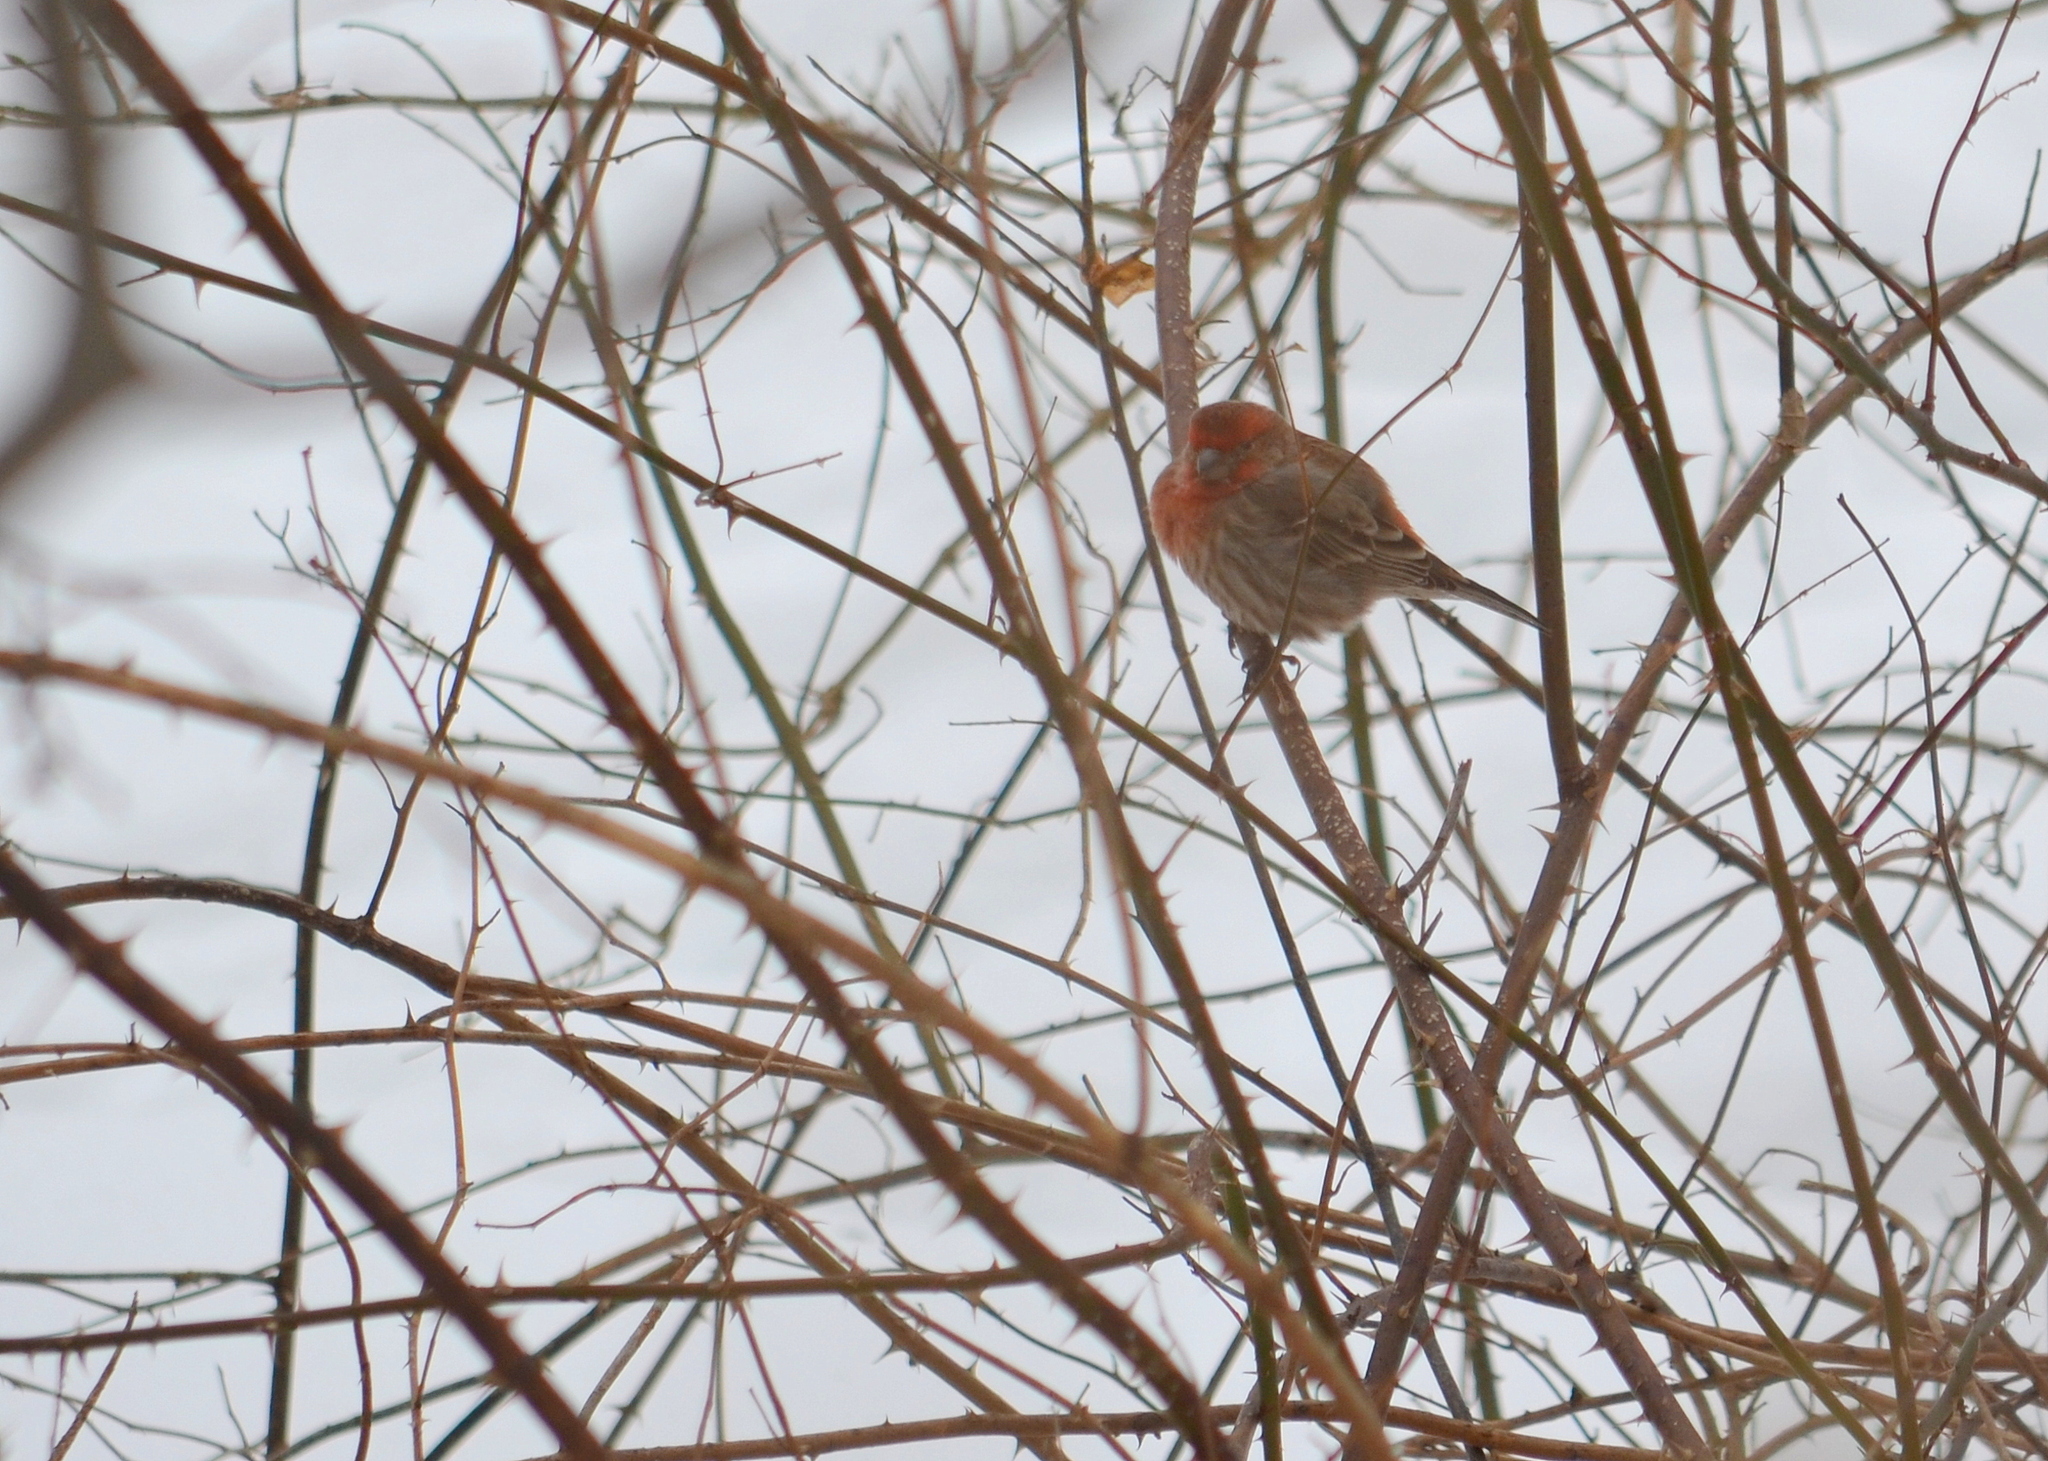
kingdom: Animalia
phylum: Chordata
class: Aves
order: Passeriformes
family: Fringillidae
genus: Haemorhous
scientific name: Haemorhous mexicanus
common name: House finch
